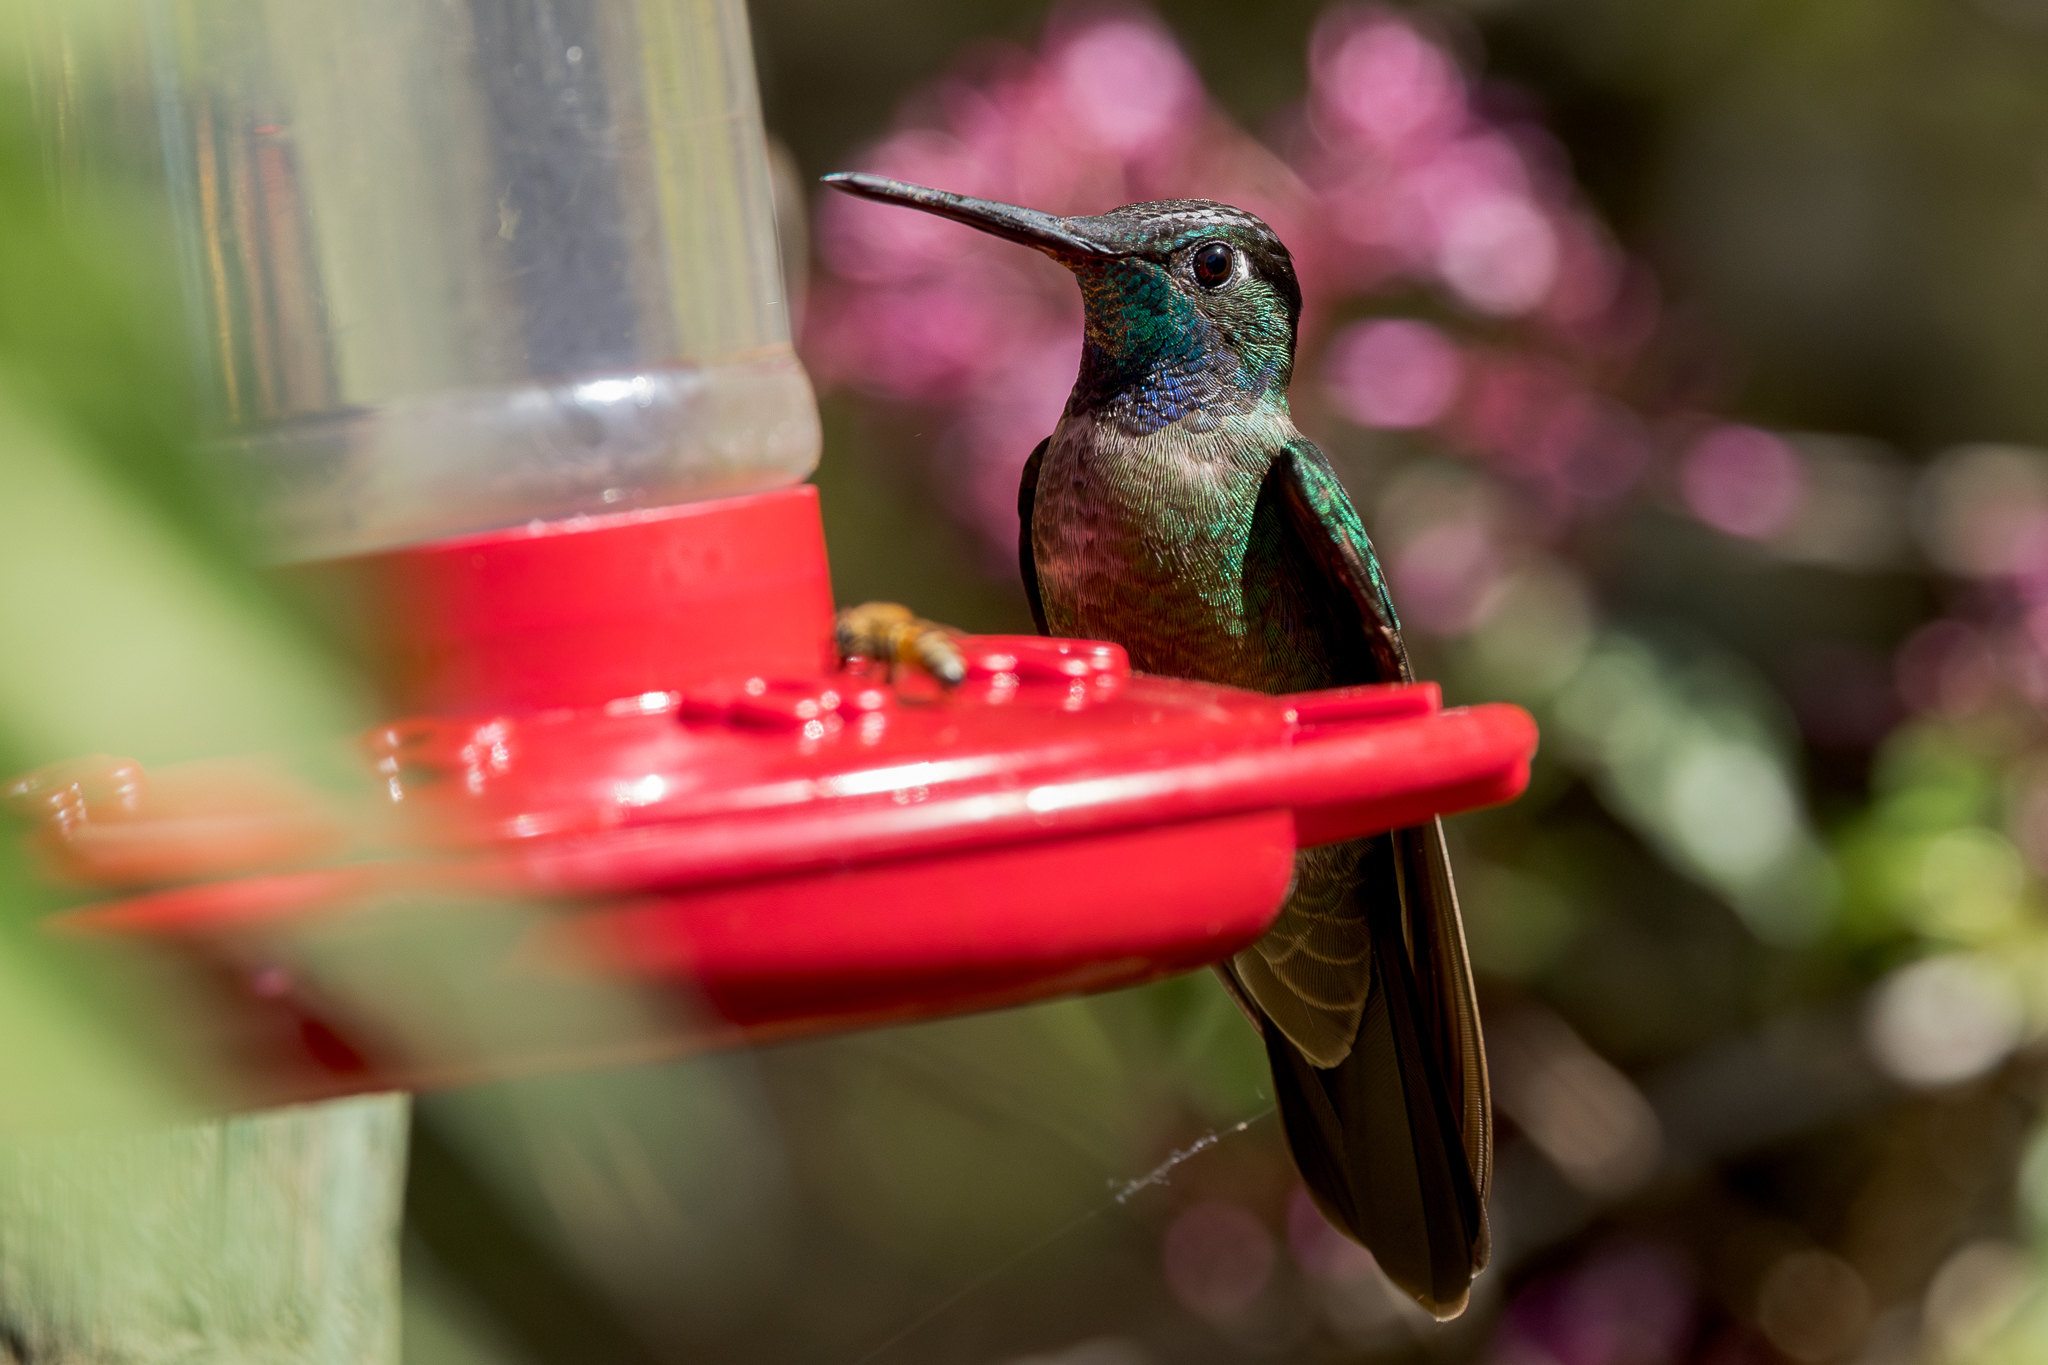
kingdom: Animalia
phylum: Chordata
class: Aves
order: Apodiformes
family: Trochilidae
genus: Eugenes
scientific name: Eugenes spectabilis
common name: Talamanca hummingbird
